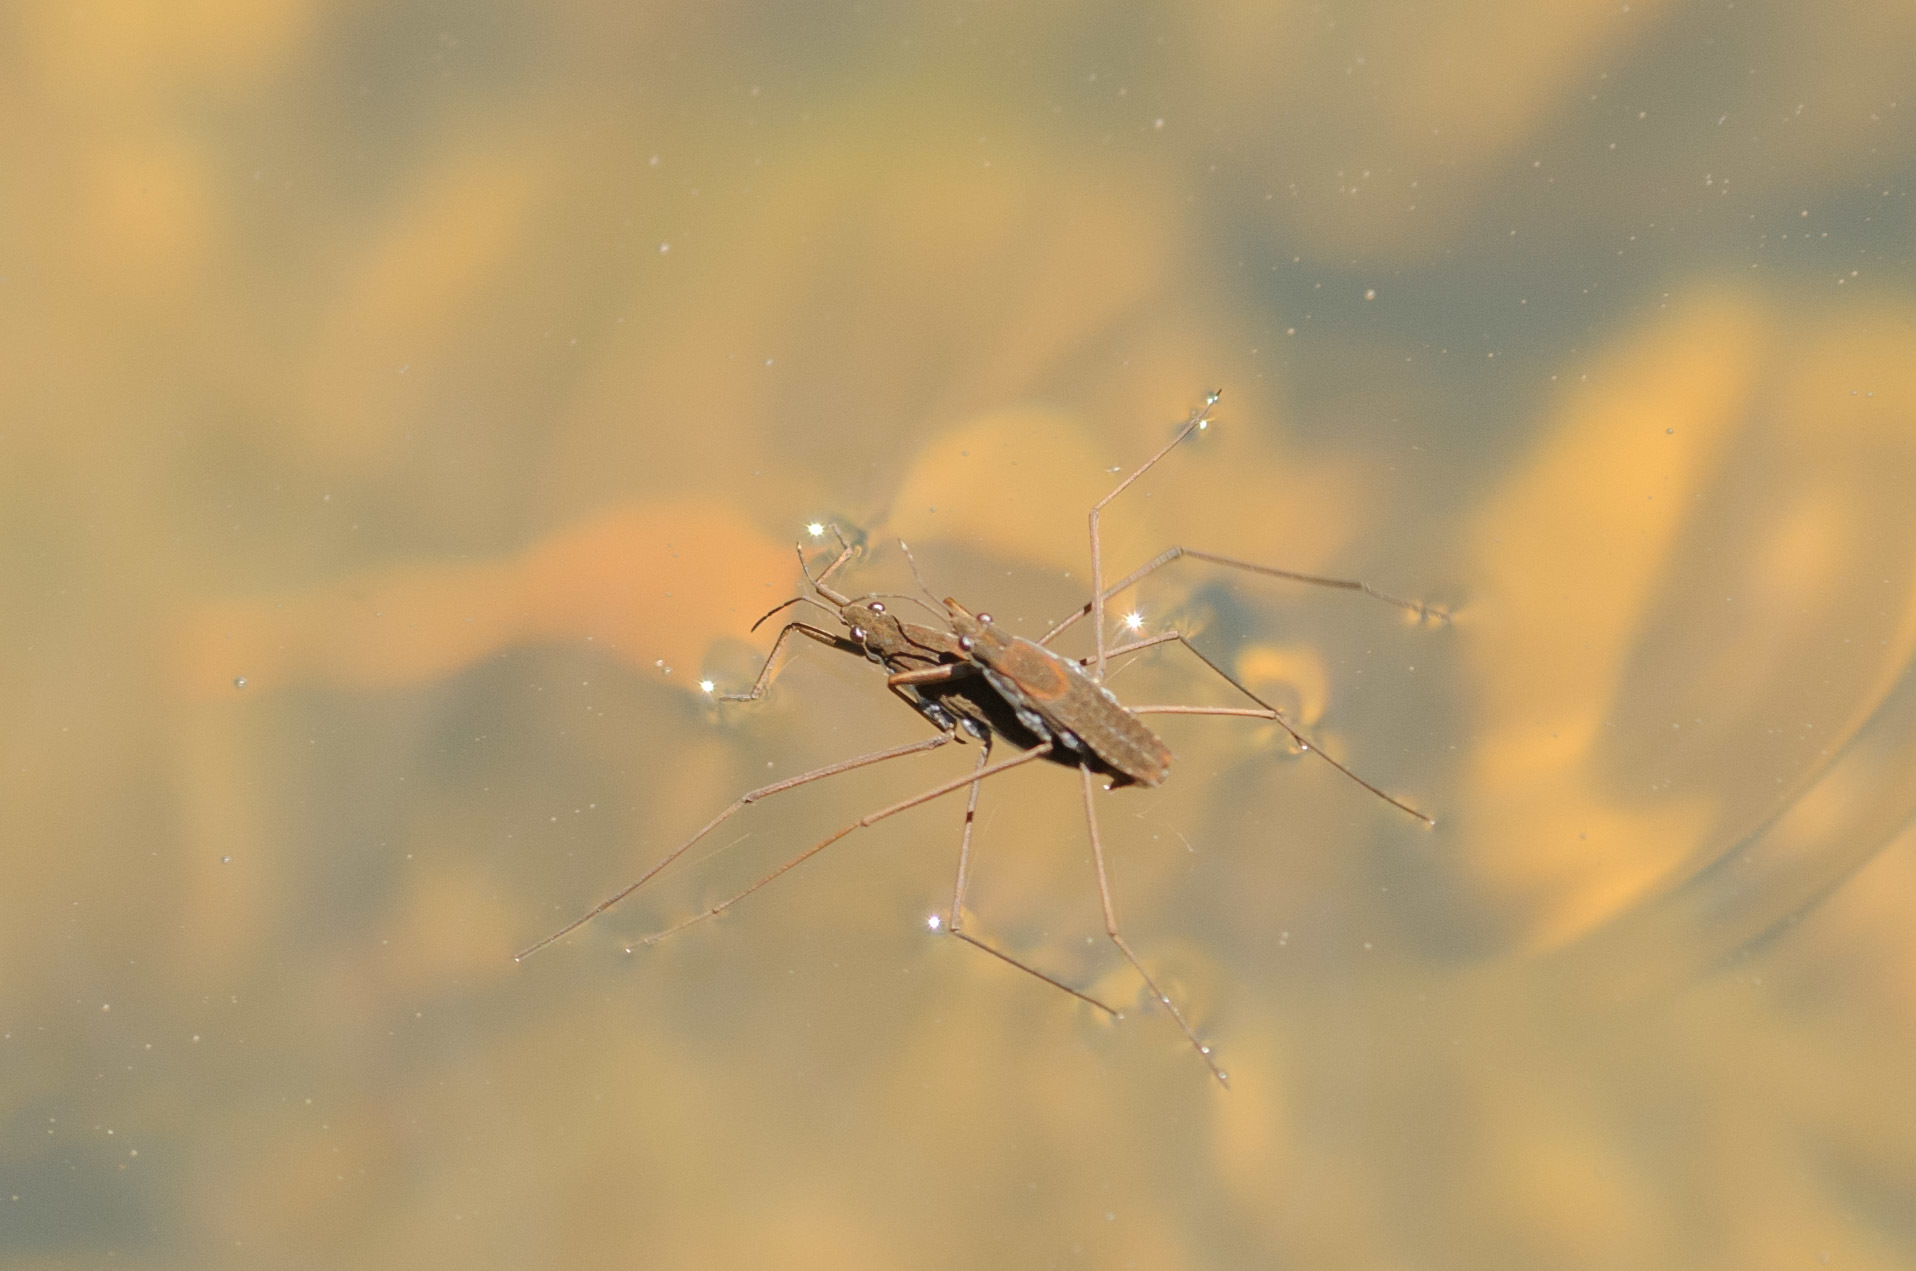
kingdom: Animalia
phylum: Arthropoda
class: Insecta
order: Hemiptera
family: Gerridae
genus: Aquarius
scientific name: Aquarius remigis
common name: Common water strider
